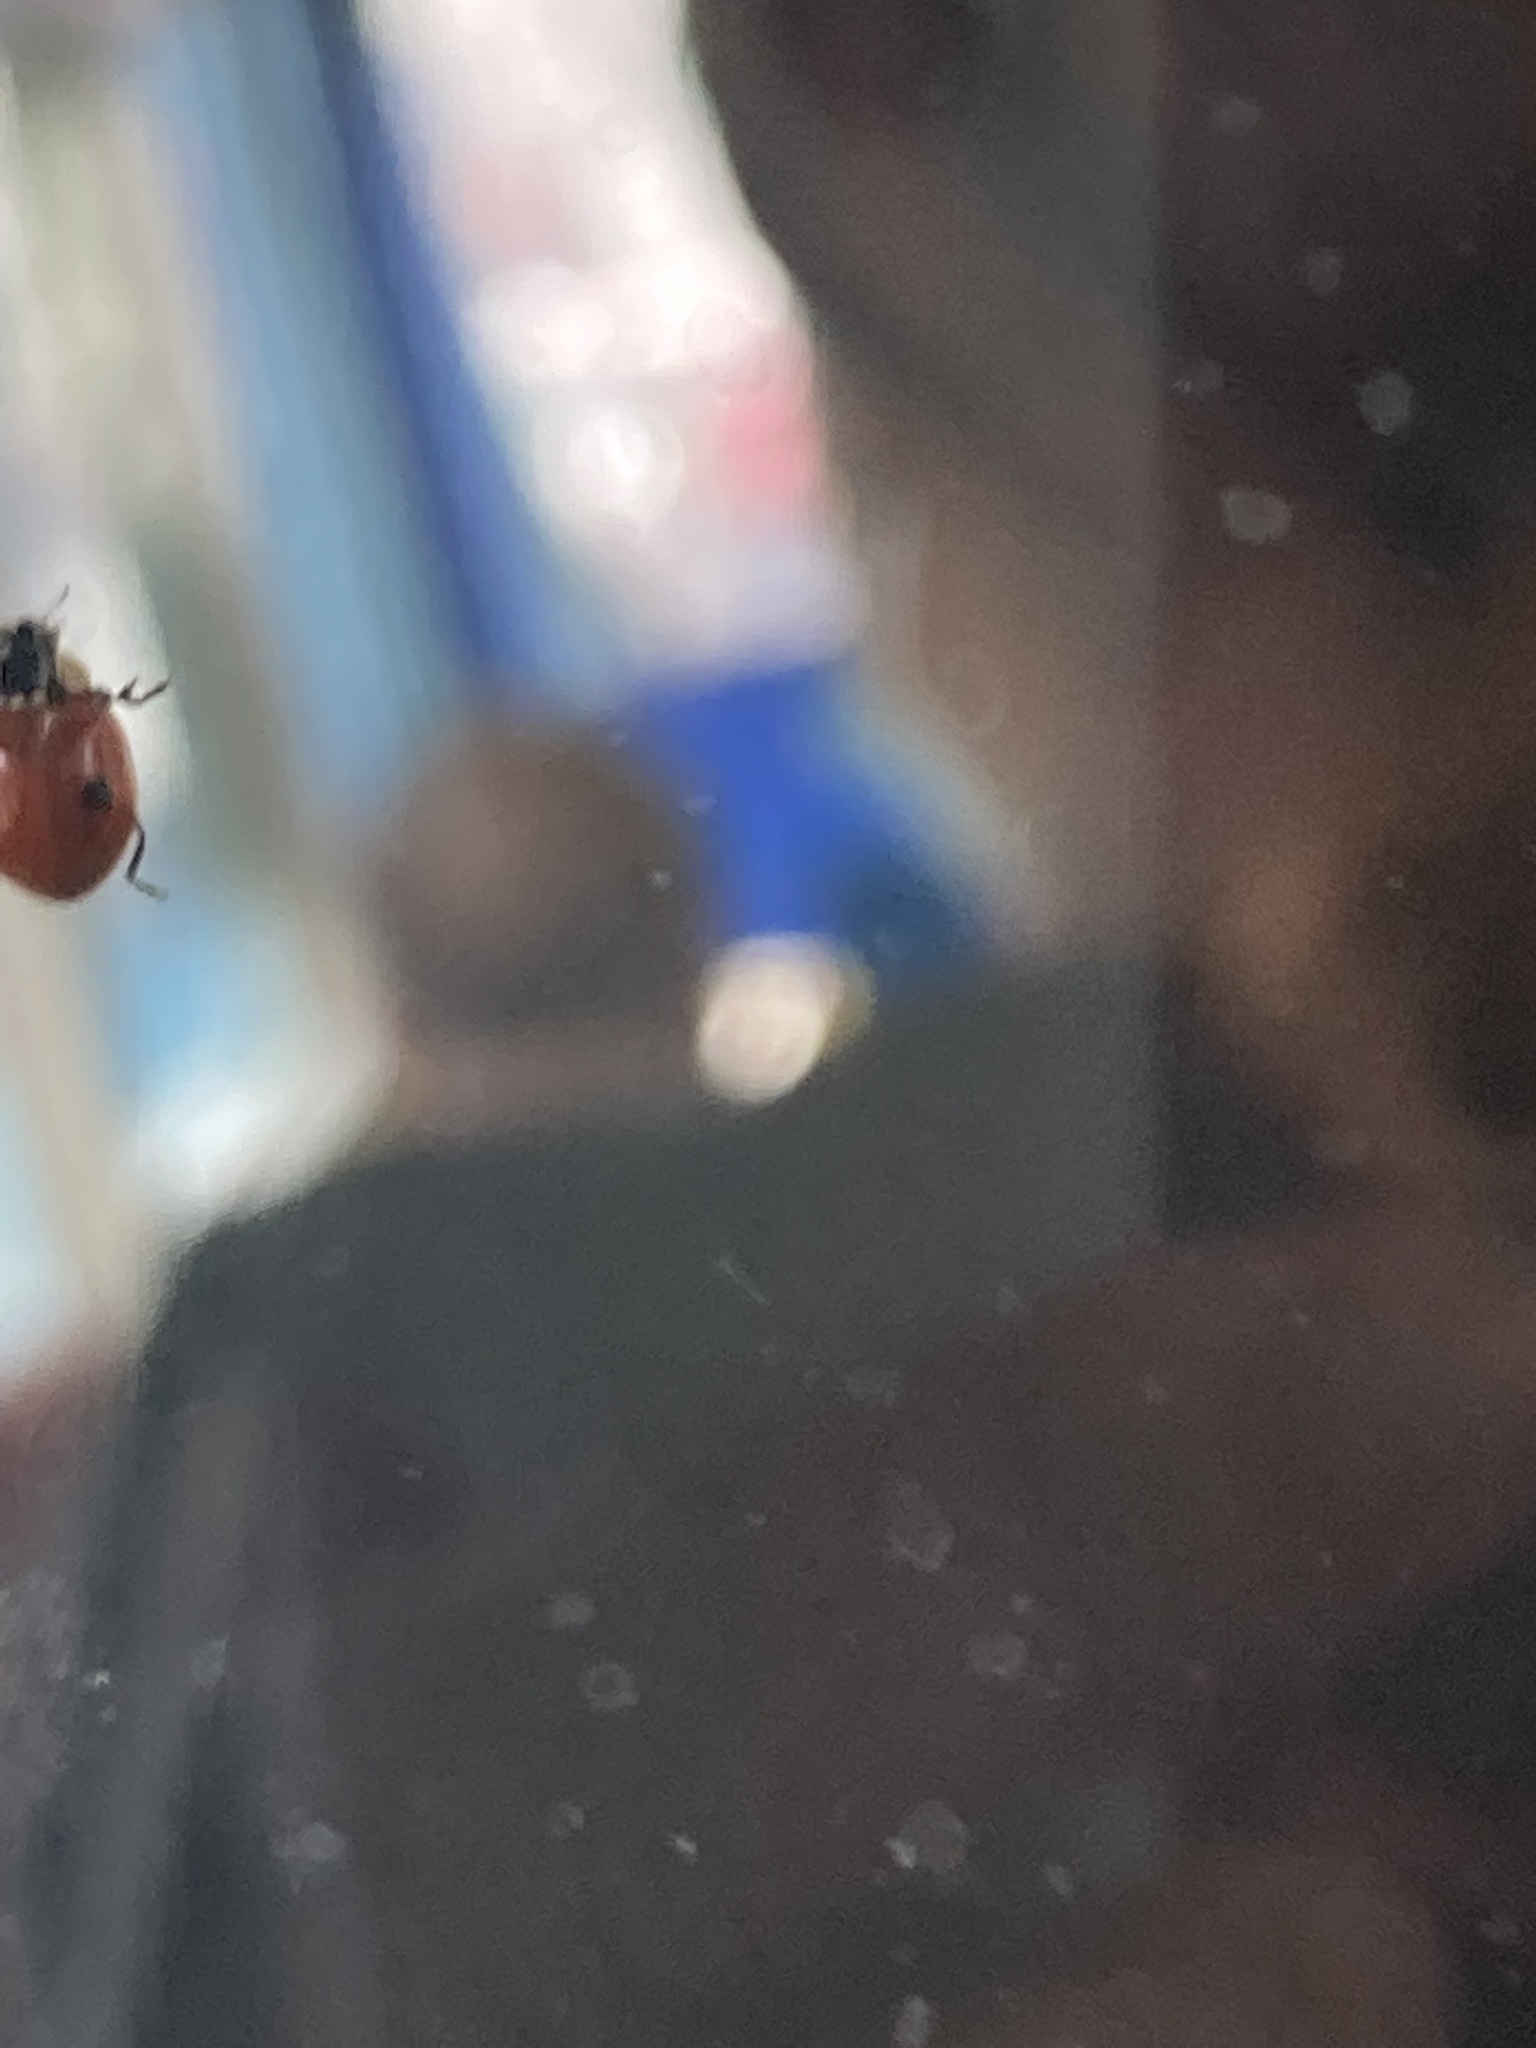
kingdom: Animalia
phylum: Arthropoda
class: Insecta
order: Coleoptera
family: Coccinellidae
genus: Adalia
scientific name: Adalia bipunctata
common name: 2-spot ladybird
